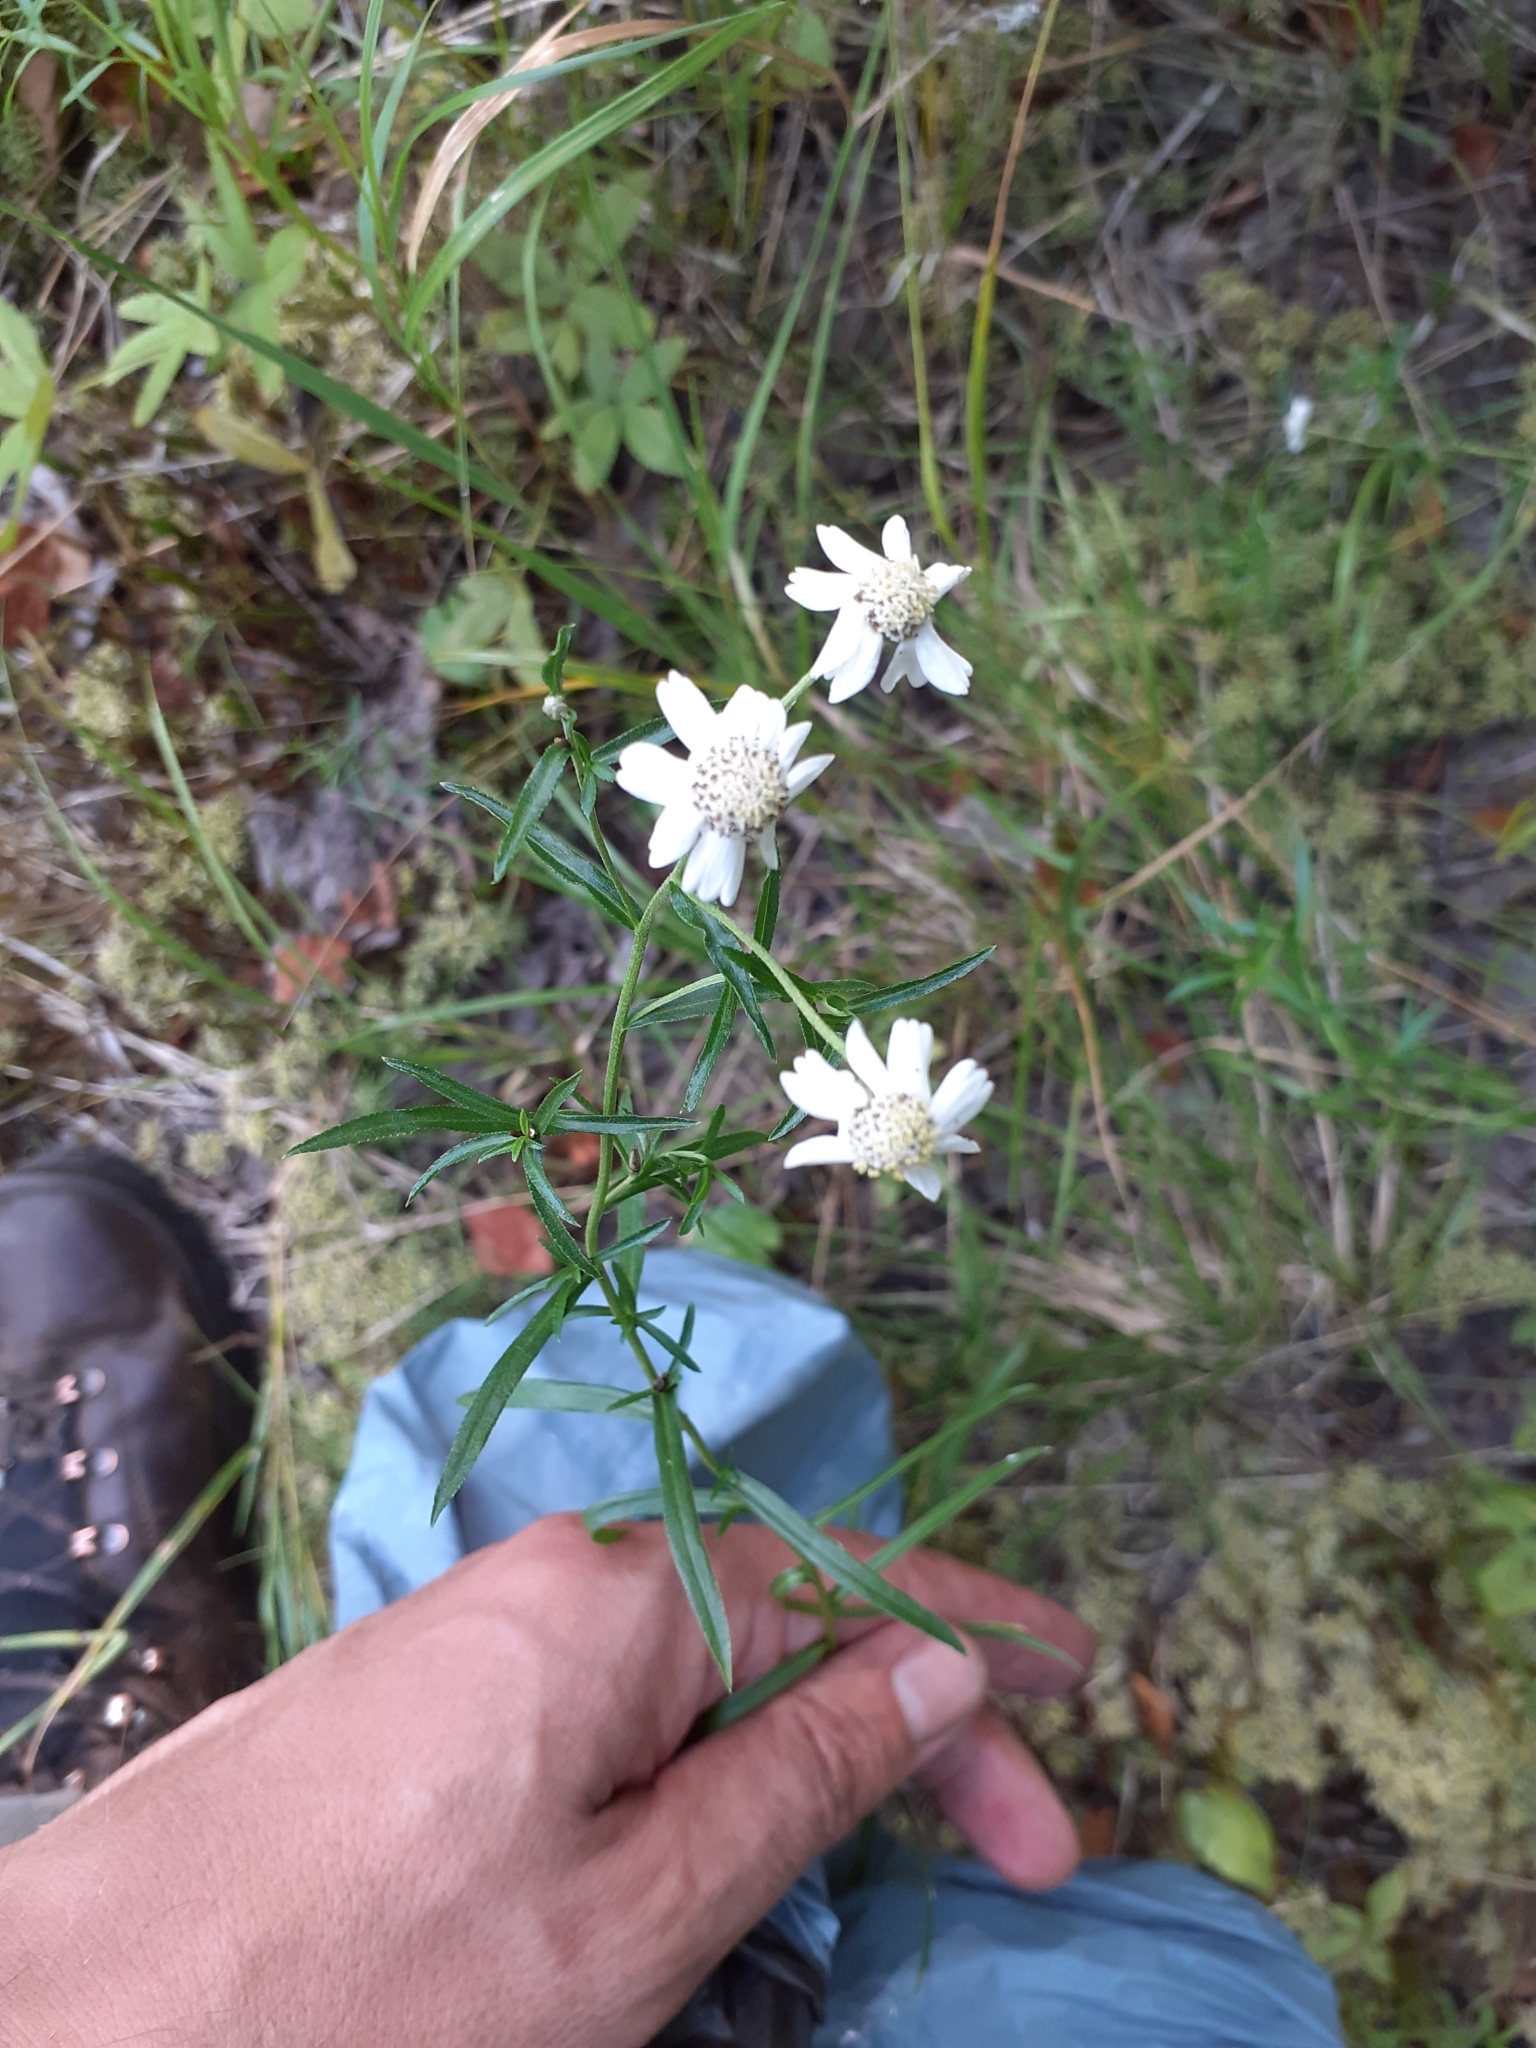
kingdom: Plantae
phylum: Tracheophyta
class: Magnoliopsida
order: Asterales
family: Asteraceae
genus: Achillea
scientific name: Achillea ptarmica
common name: Sneezeweed
